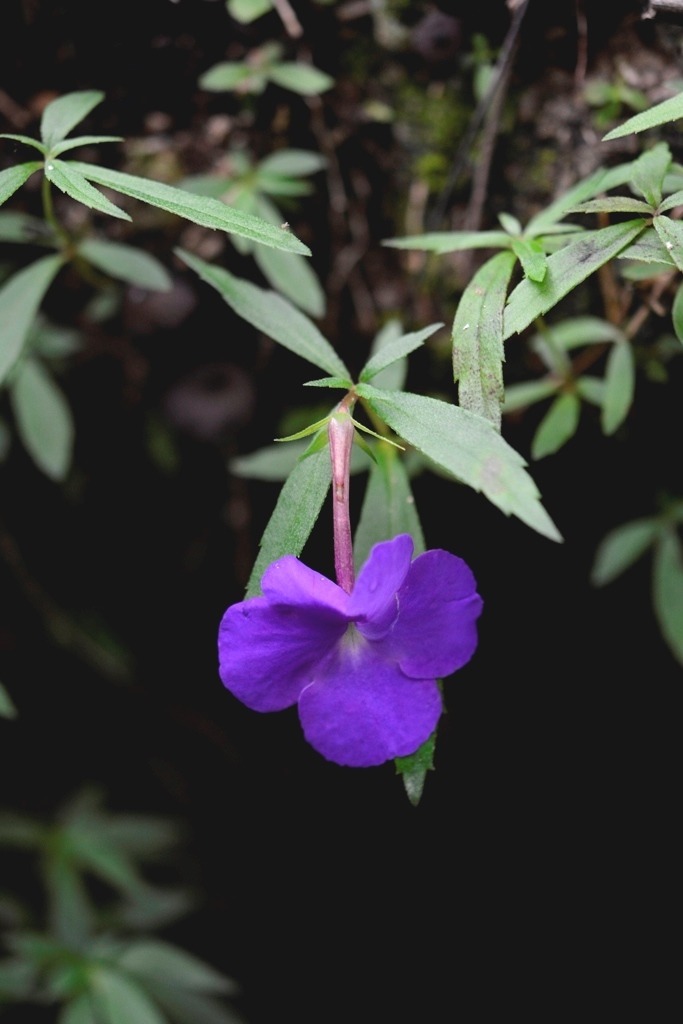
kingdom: Plantae
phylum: Tracheophyta
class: Magnoliopsida
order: Lamiales
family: Gesneriaceae
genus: Achimenes
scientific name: Achimenes cettoana
